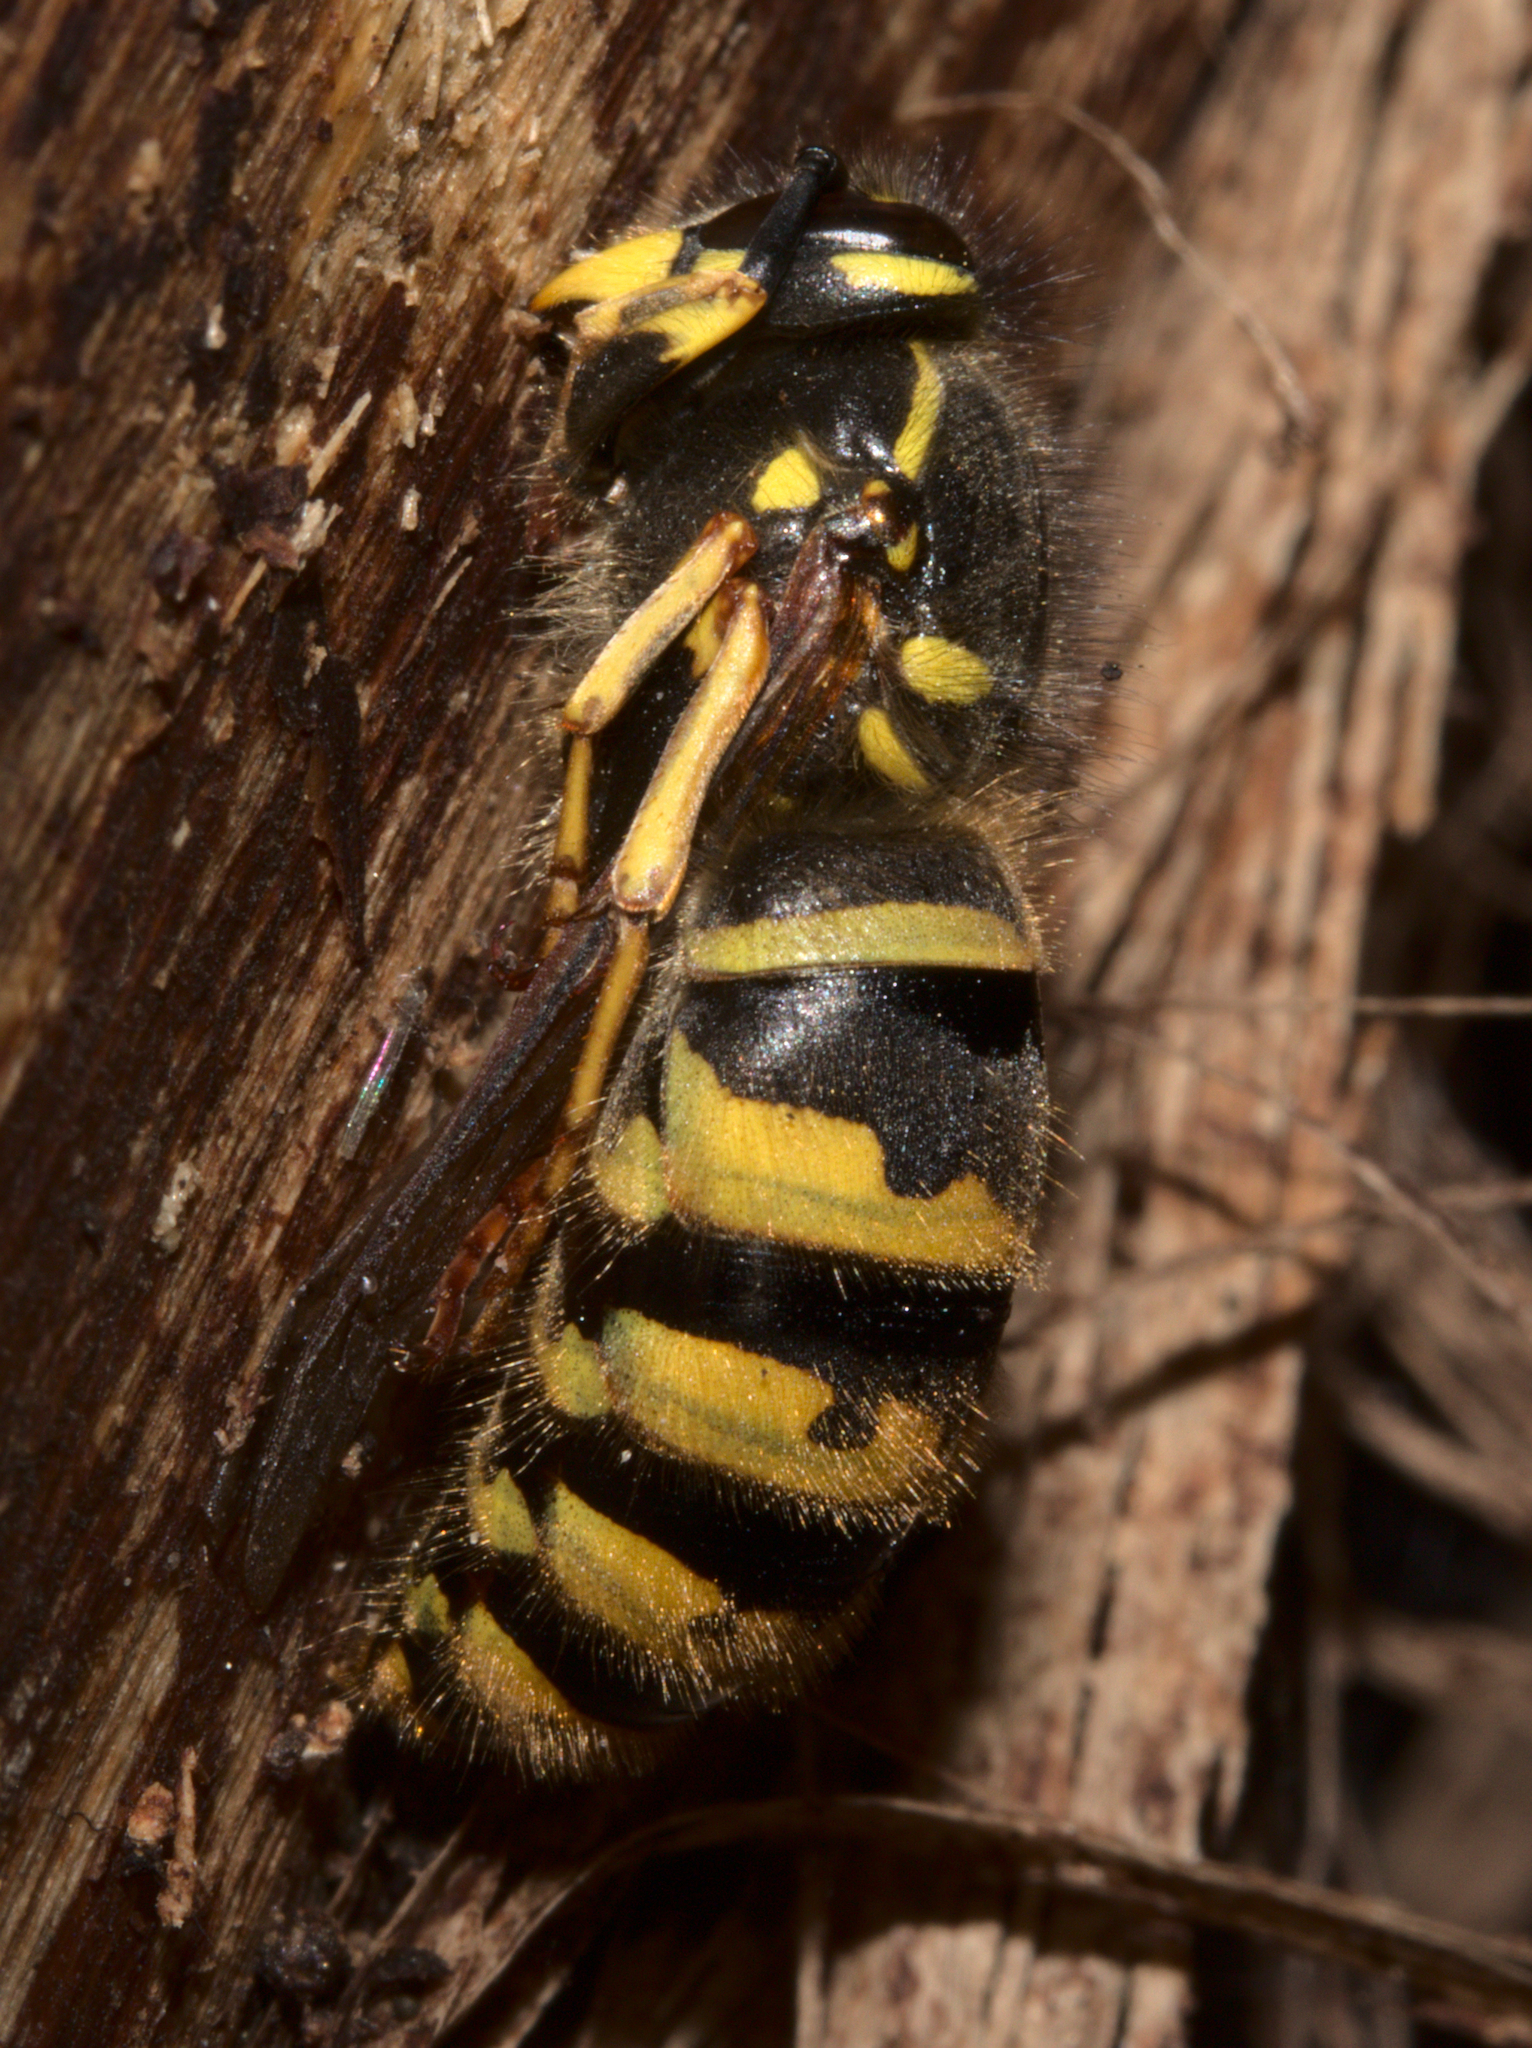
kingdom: Animalia
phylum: Arthropoda
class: Insecta
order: Hymenoptera
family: Vespidae
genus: Vespula
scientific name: Vespula vulgaris
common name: Common wasp
